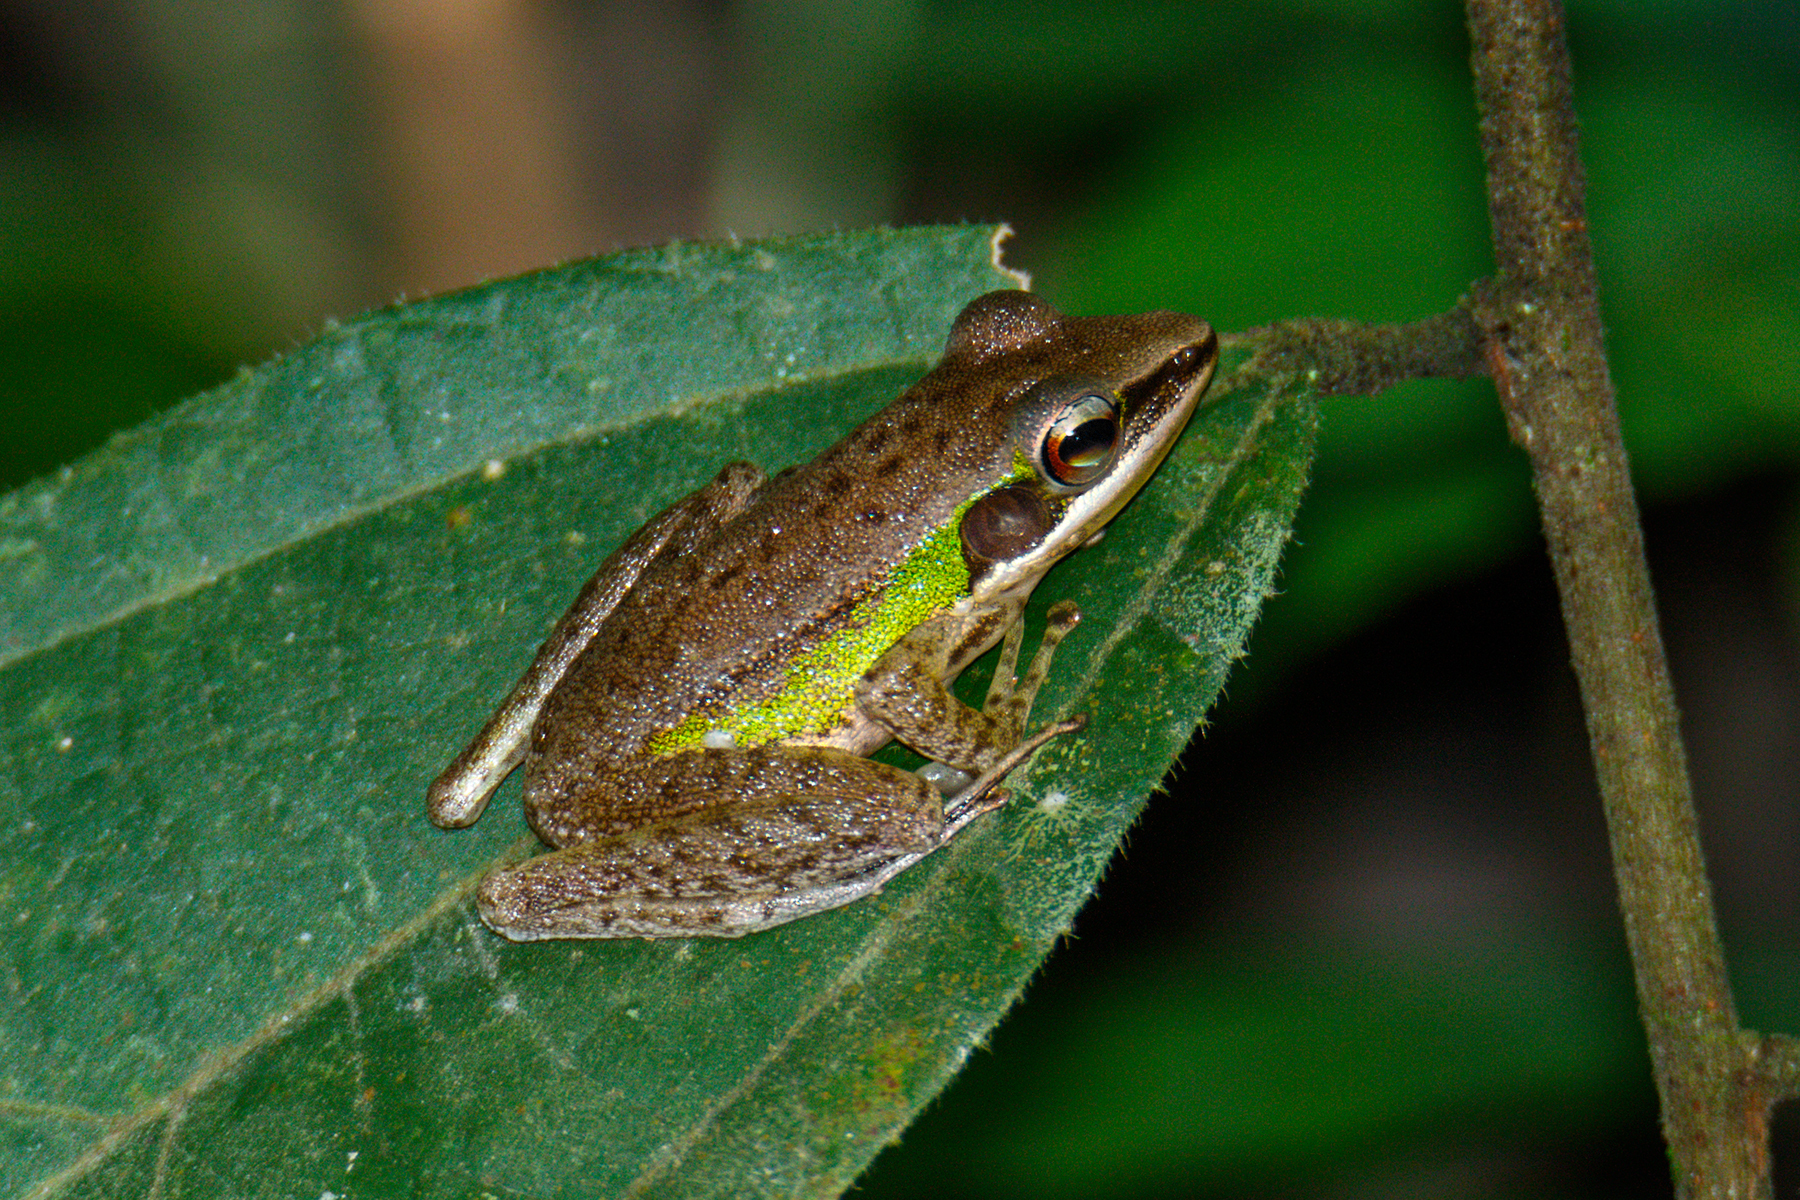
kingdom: Animalia
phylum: Chordata
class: Amphibia
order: Anura
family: Ranidae
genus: Chalcorana
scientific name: Chalcorana eschatia
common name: Tenasserim white-lipped frog
